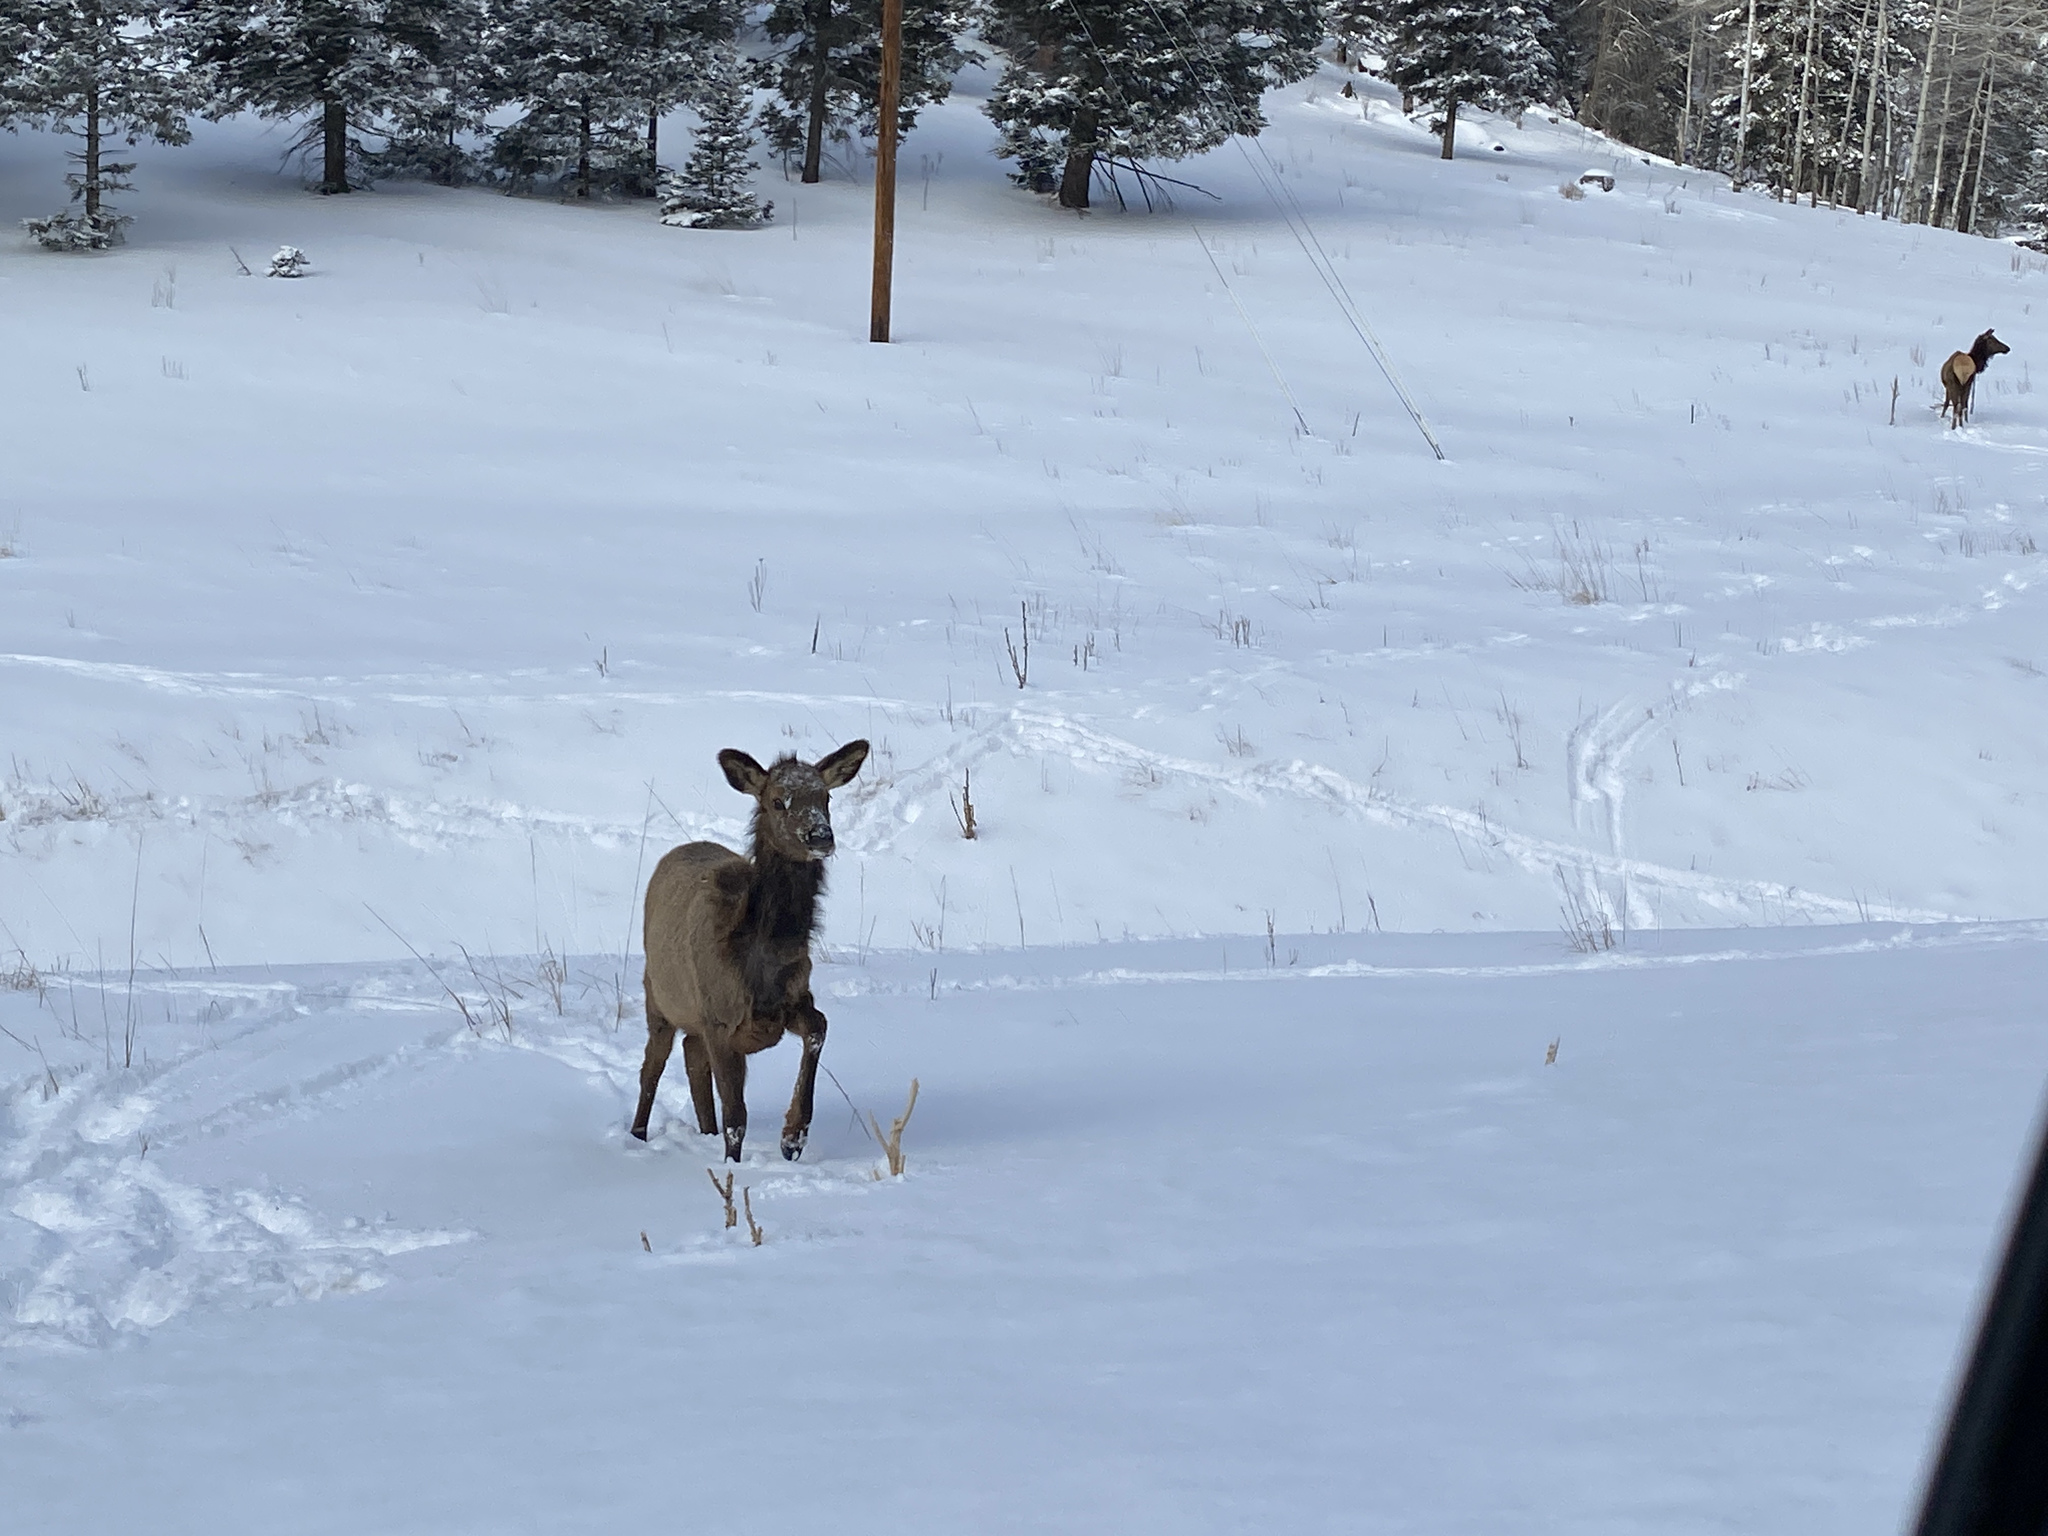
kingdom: Animalia
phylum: Chordata
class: Mammalia
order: Artiodactyla
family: Cervidae
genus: Cervus
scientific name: Cervus elaphus
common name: Red deer
